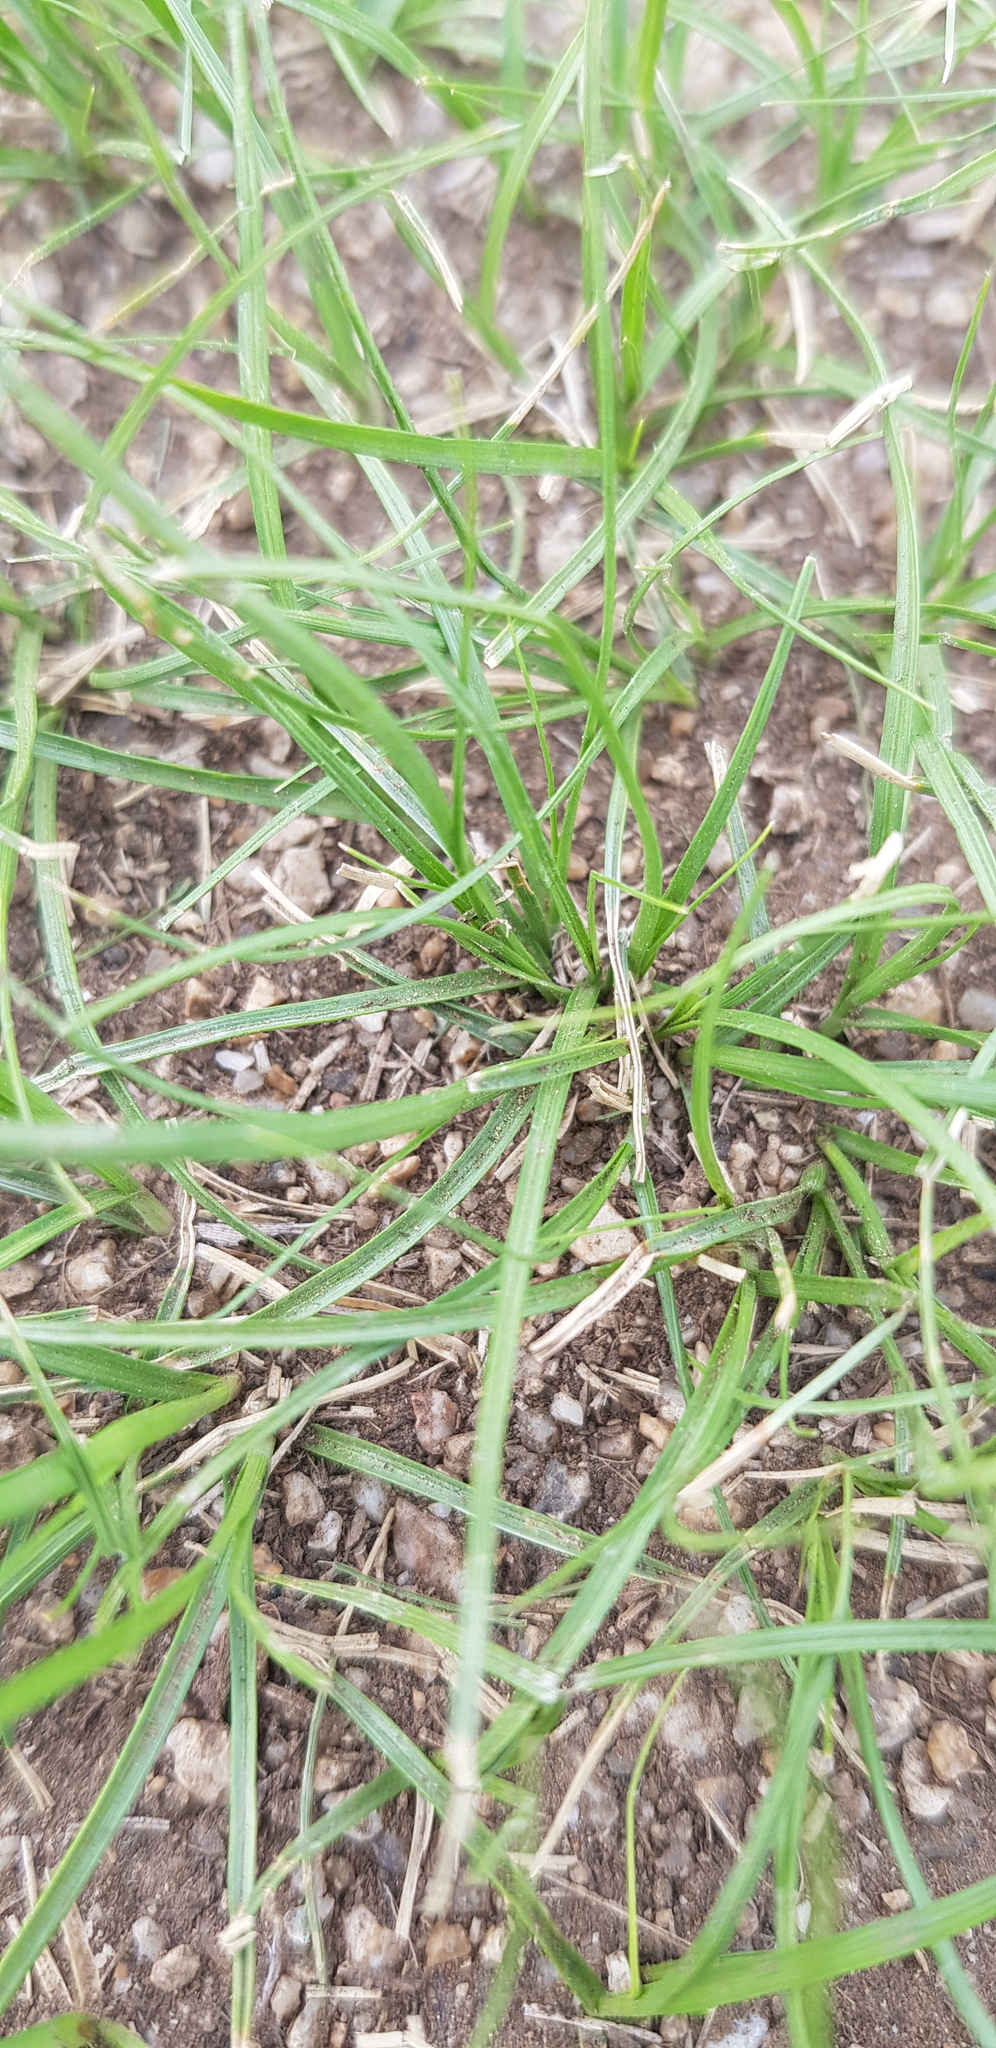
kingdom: Plantae
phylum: Tracheophyta
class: Liliopsida
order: Poales
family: Cyperaceae
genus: Carex
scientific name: Carex duriuscula
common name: Involute-leaved sedge
